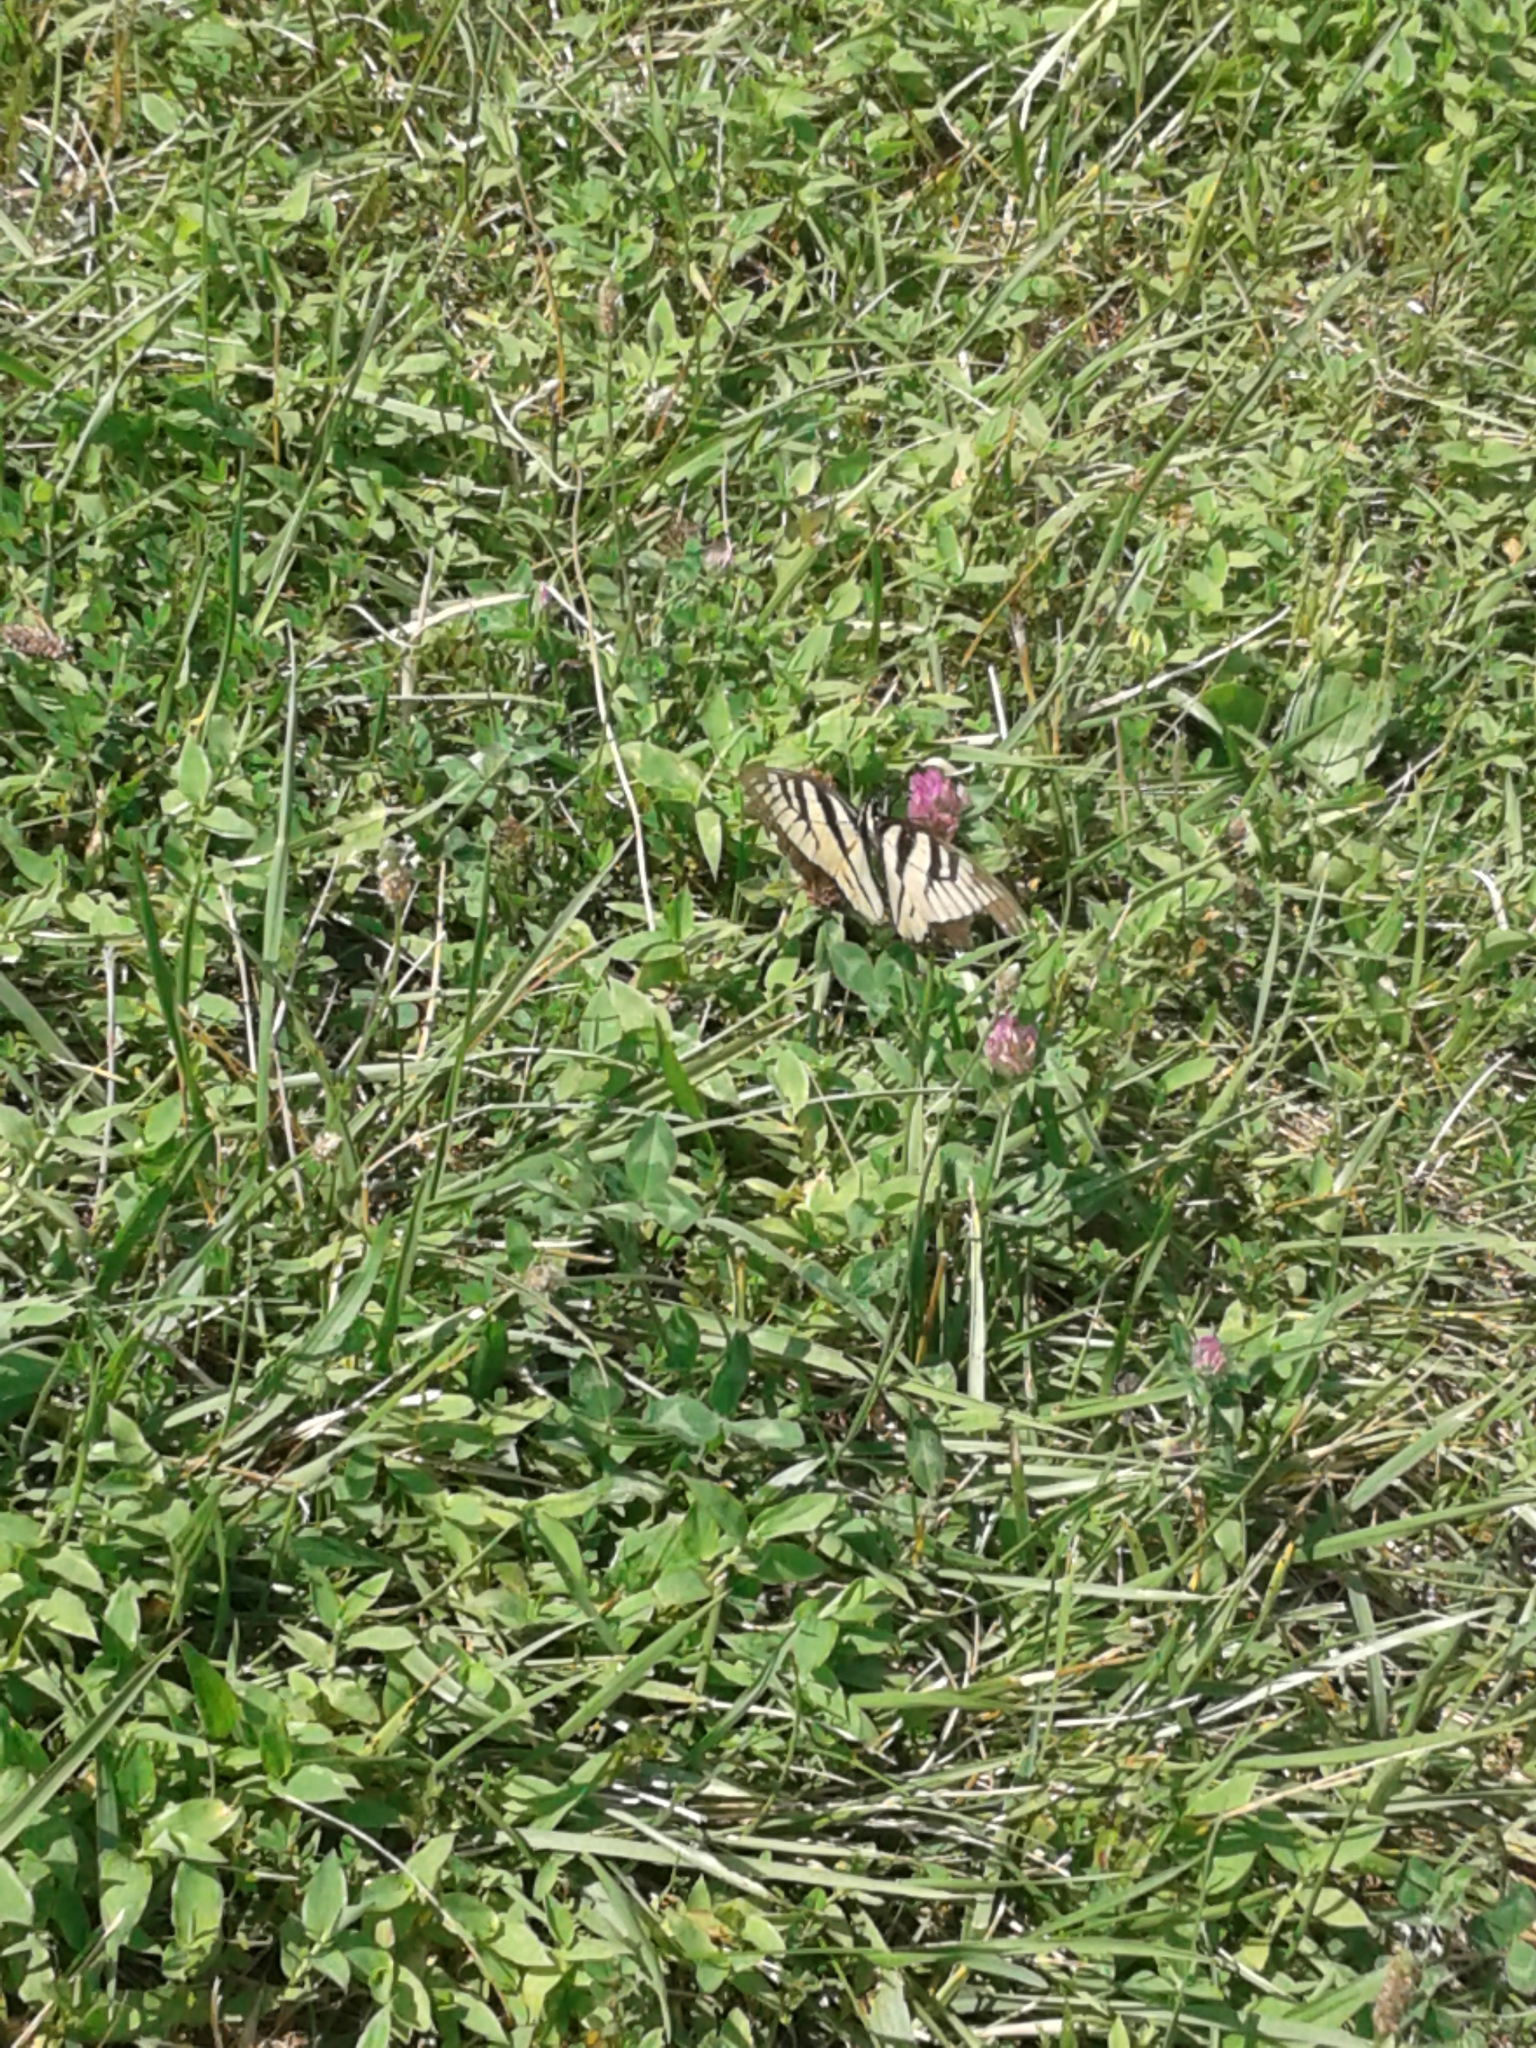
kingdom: Animalia
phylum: Arthropoda
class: Insecta
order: Lepidoptera
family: Papilionidae
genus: Papilio
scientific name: Papilio glaucus
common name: Tiger swallowtail
